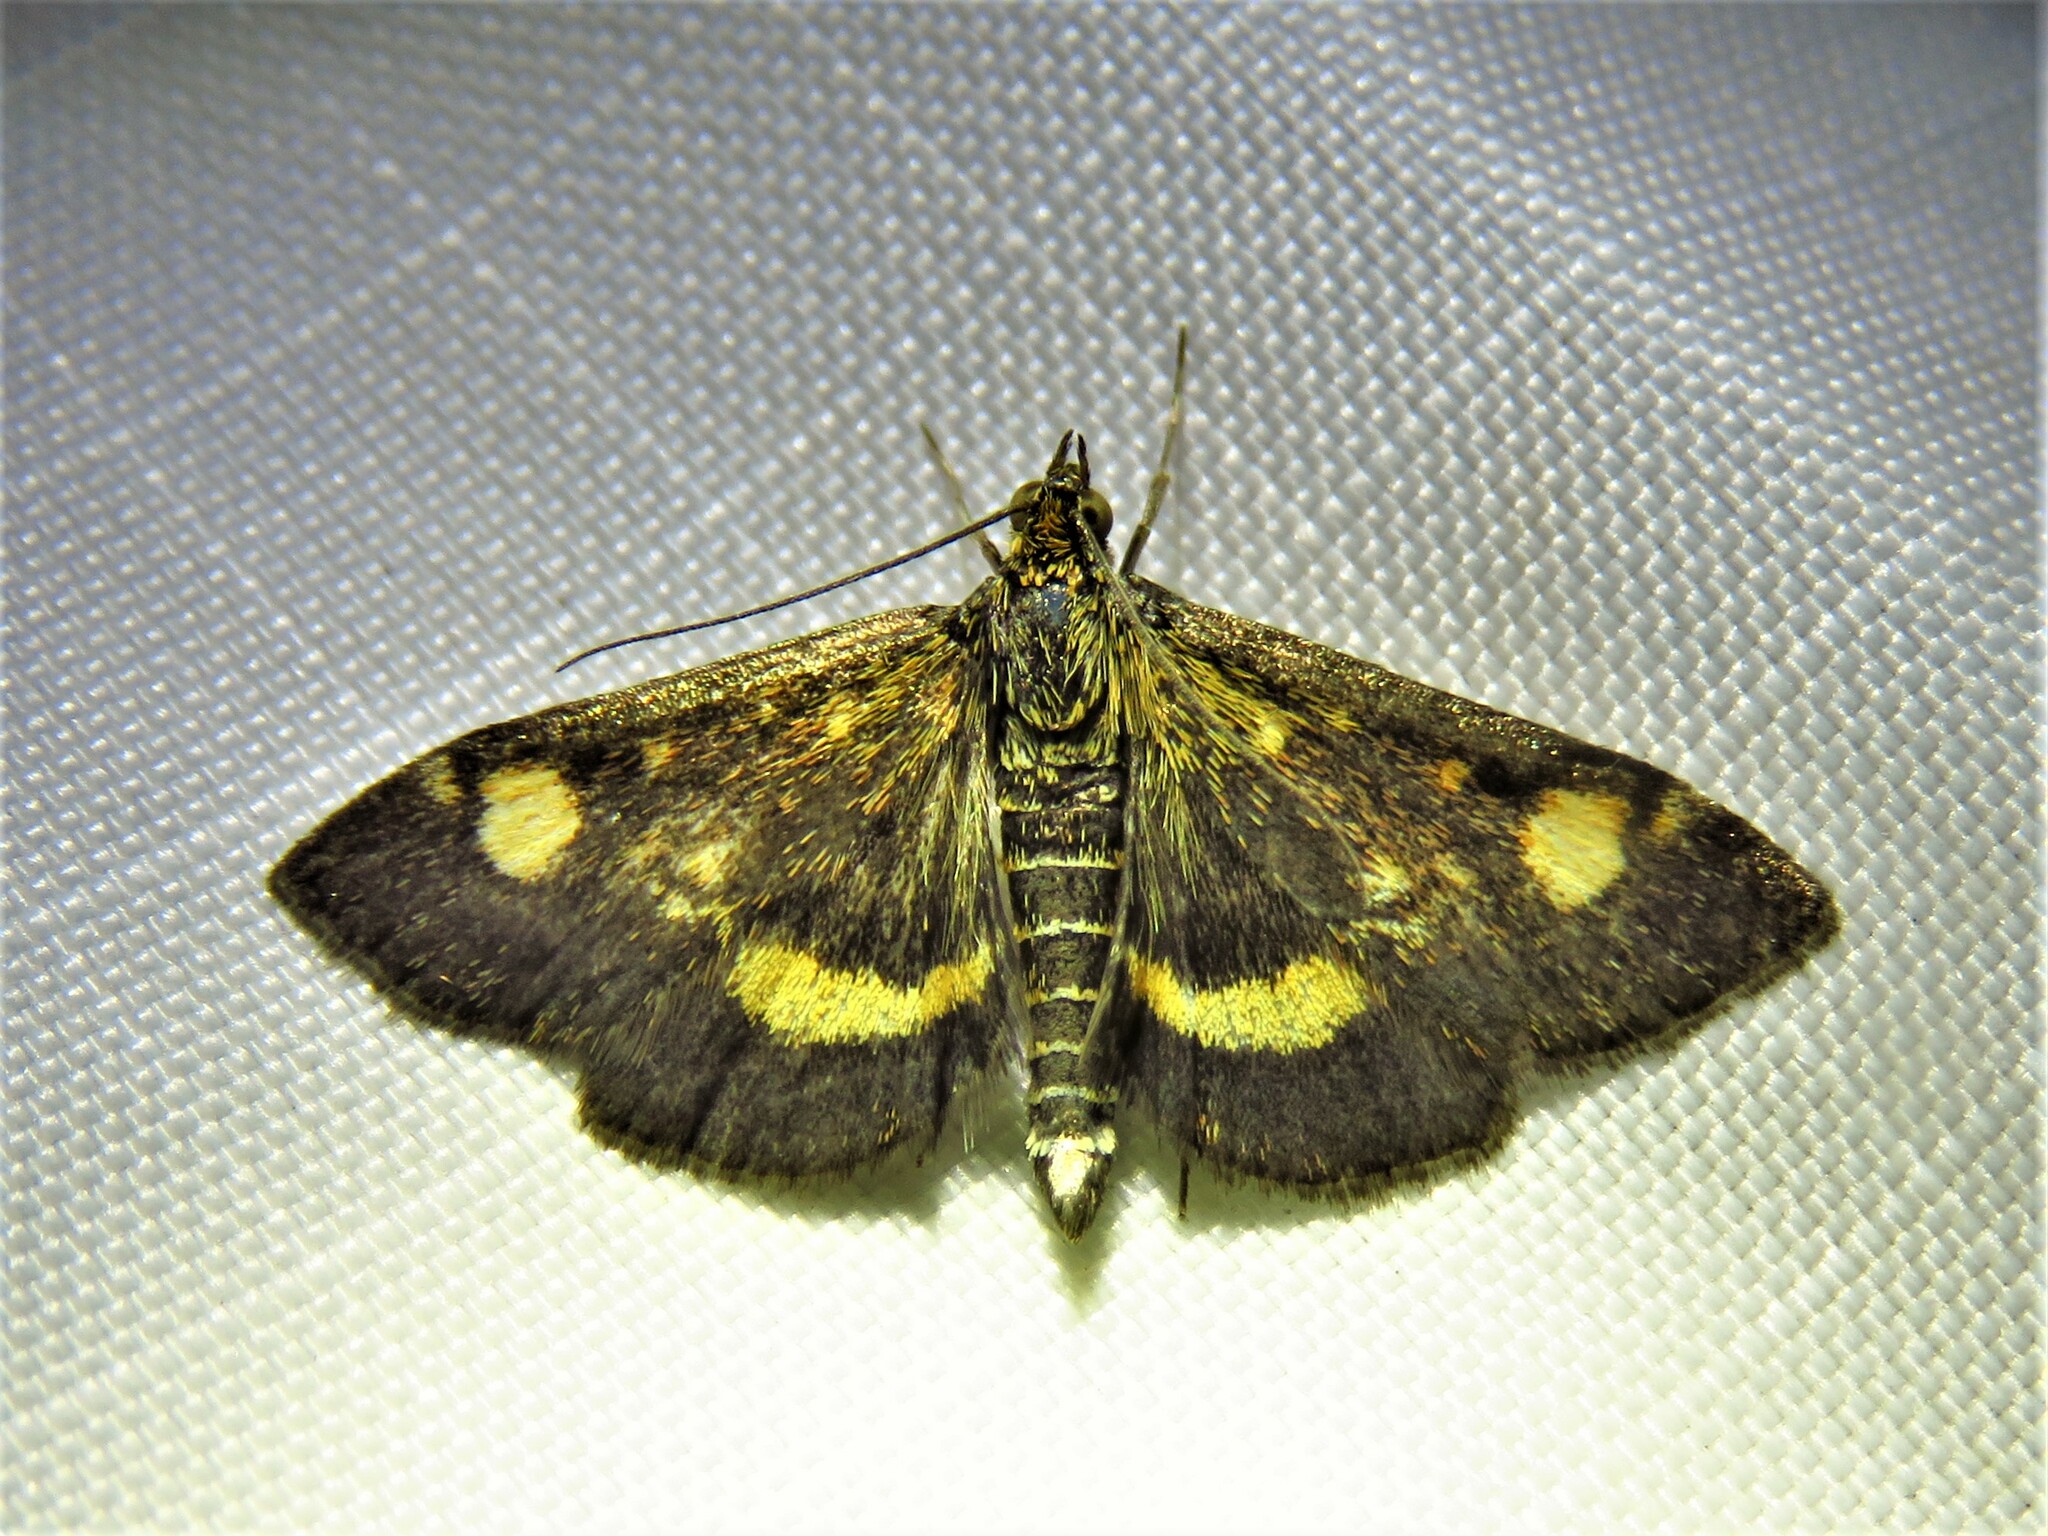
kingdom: Animalia
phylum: Arthropoda
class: Insecta
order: Lepidoptera
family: Crambidae
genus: Pyrausta
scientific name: Pyrausta aurata
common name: Small purple & gold
